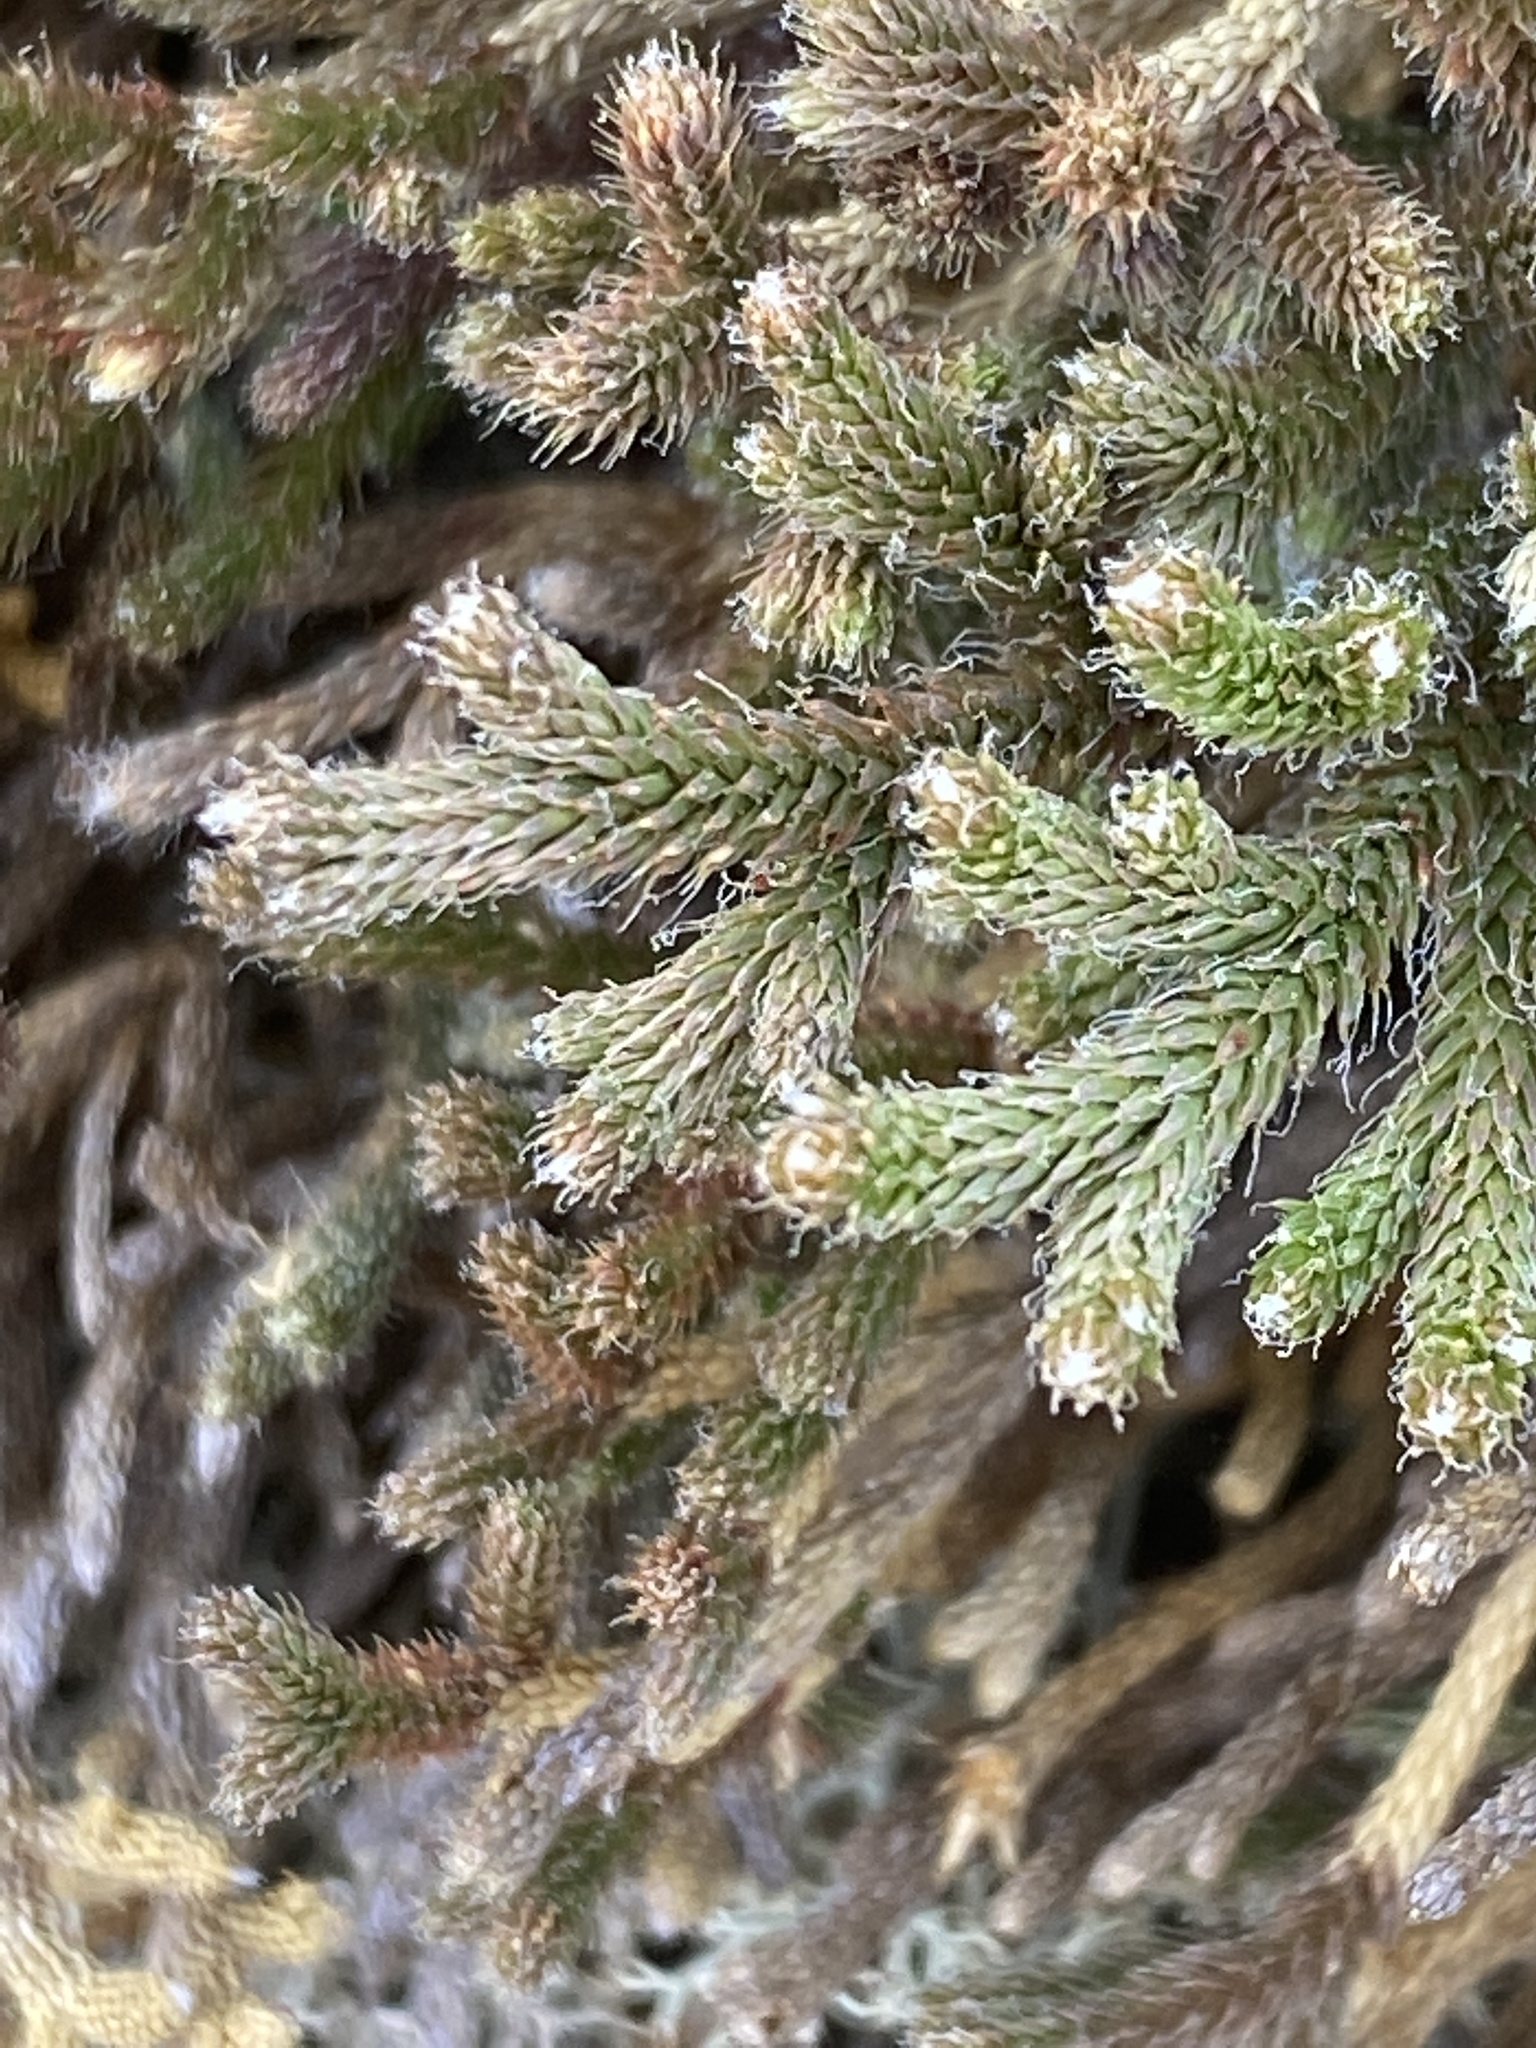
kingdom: Plantae
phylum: Tracheophyta
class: Lycopodiopsida
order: Selaginellales
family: Selaginellaceae
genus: Selaginella
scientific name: Selaginella tortipila
